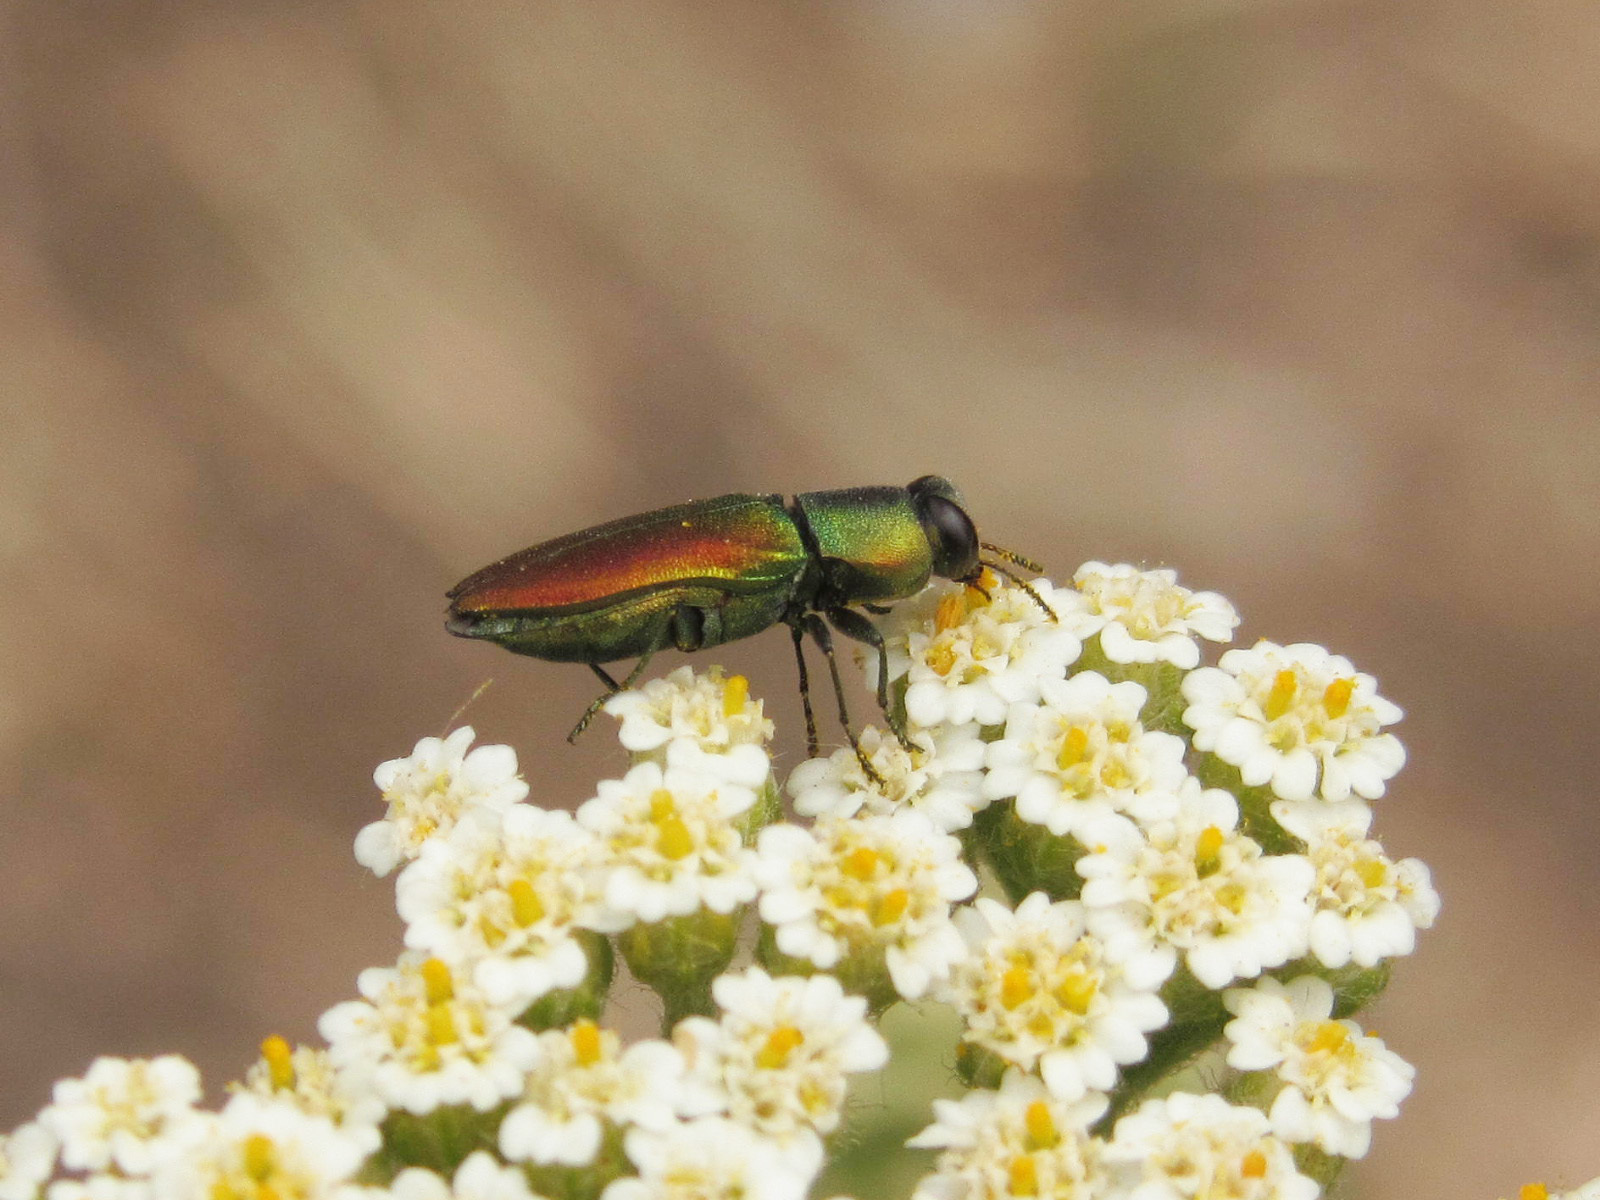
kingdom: Animalia
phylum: Arthropoda
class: Insecta
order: Coleoptera
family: Buprestidae
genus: Anthaxia
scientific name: Anthaxia cichorii
